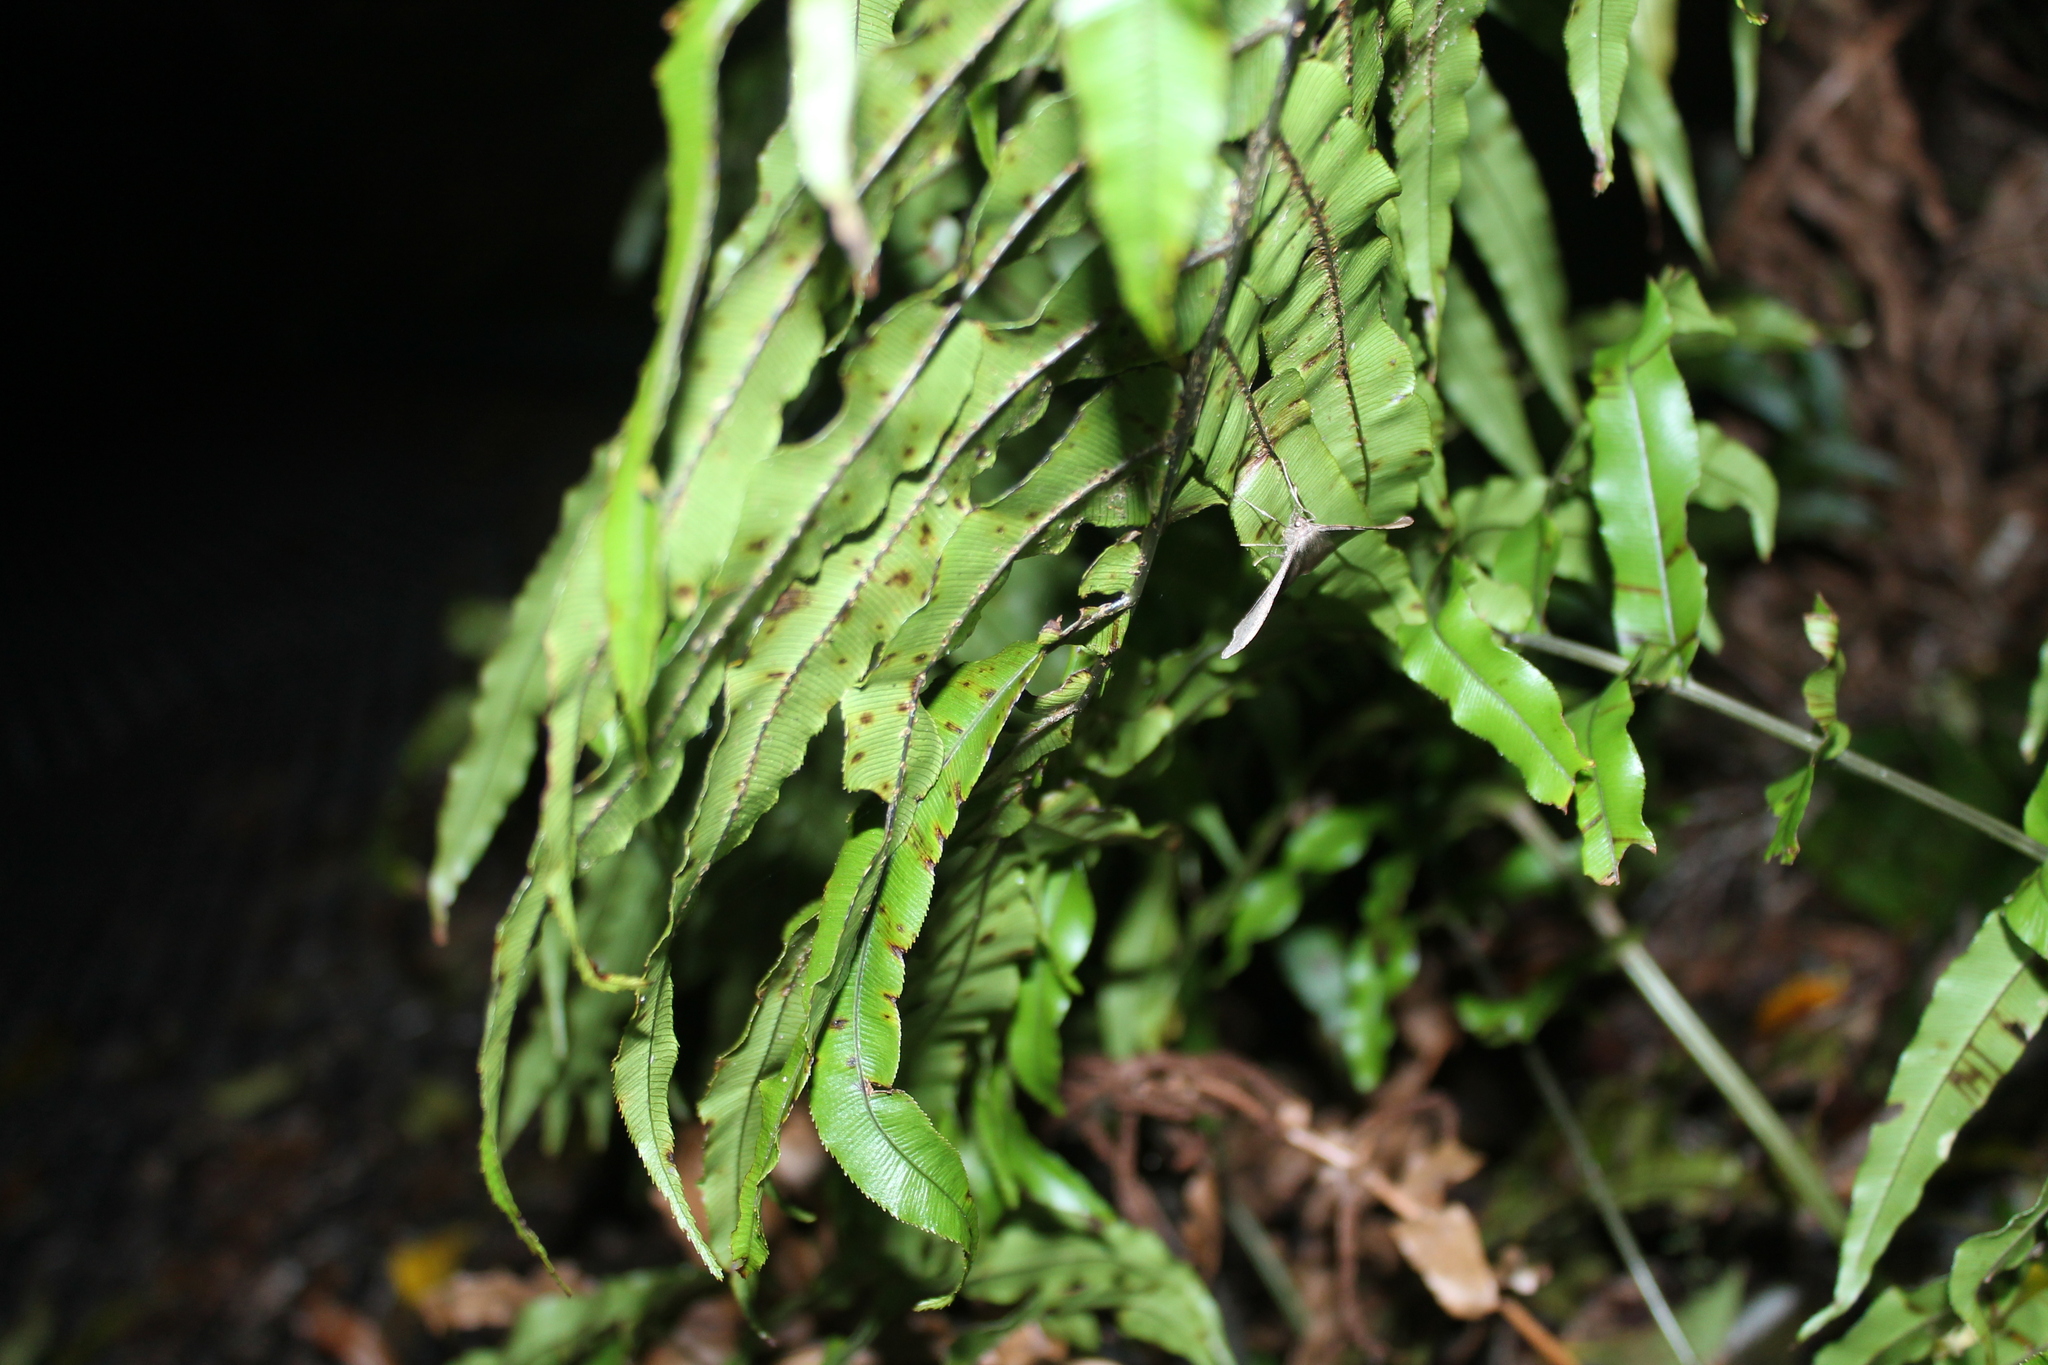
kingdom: Plantae
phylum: Tracheophyta
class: Polypodiopsida
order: Polypodiales
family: Blechnaceae
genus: Parablechnum
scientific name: Parablechnum montanum
